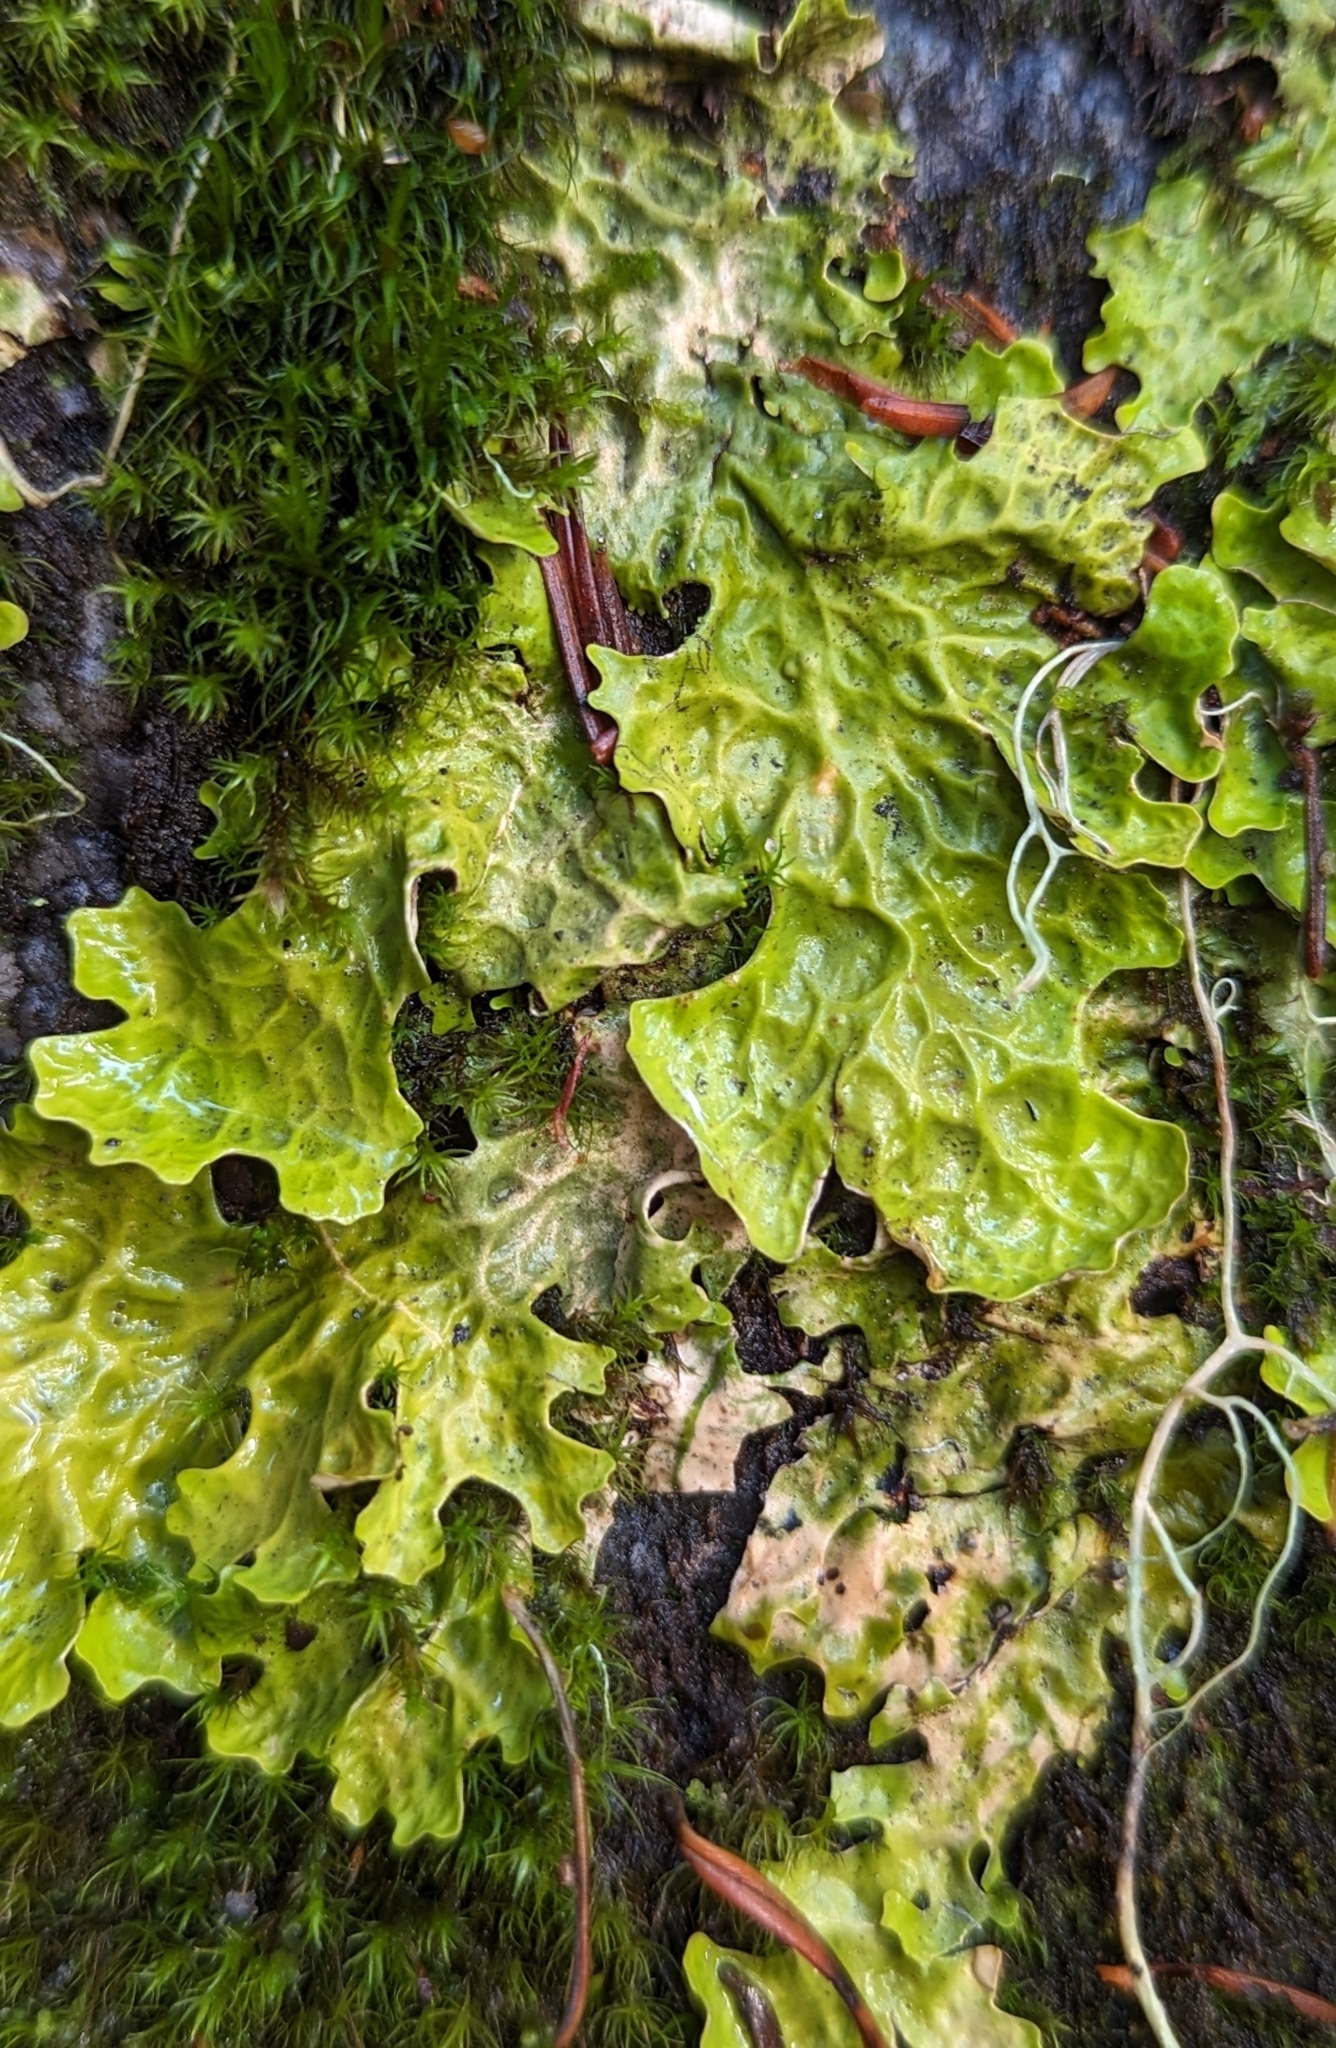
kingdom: Fungi
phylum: Ascomycota
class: Lecanoromycetes
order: Peltigerales
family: Lobariaceae
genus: Lobaria
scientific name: Lobaria linita
